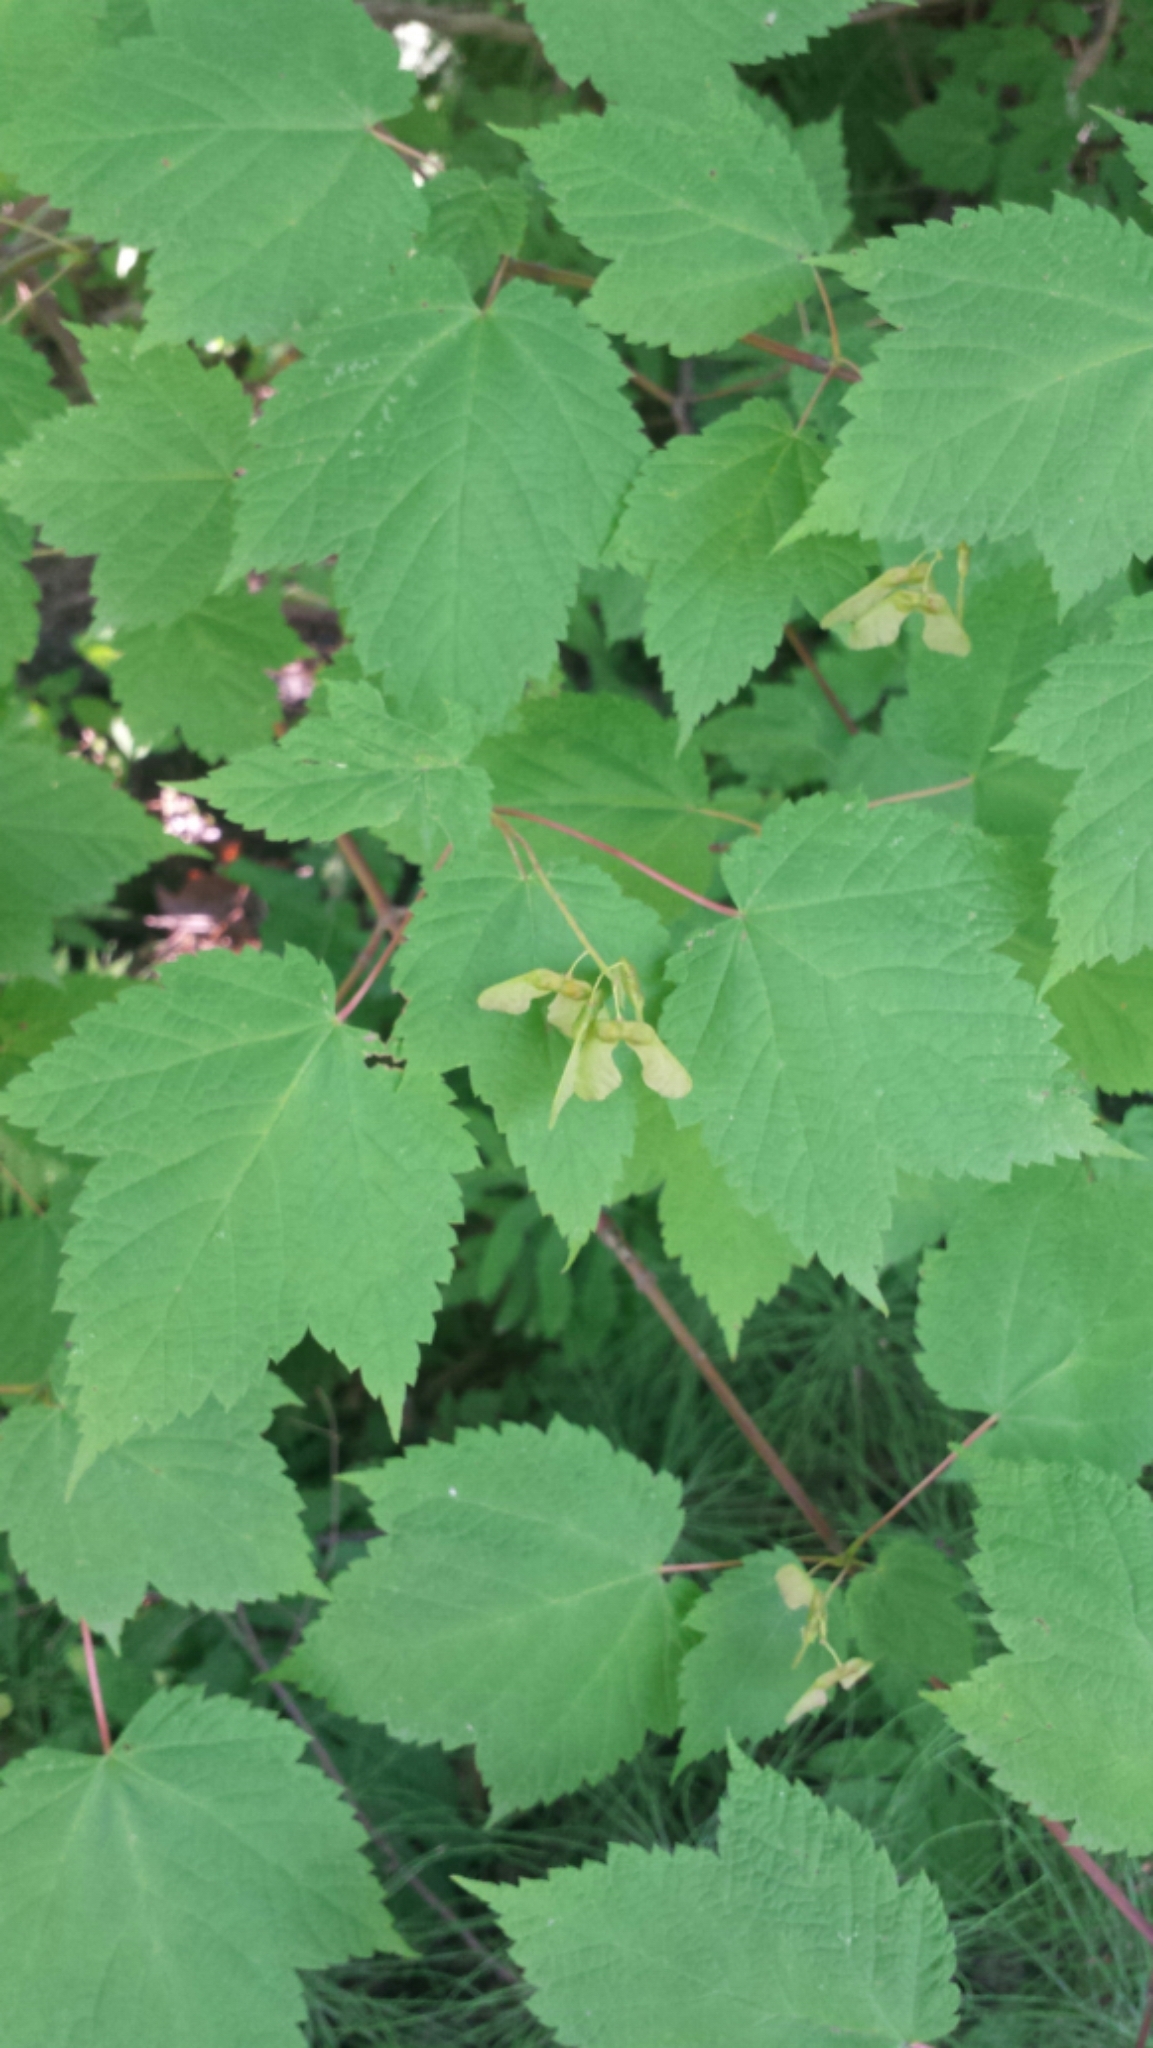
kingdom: Plantae
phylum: Tracheophyta
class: Magnoliopsida
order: Sapindales
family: Sapindaceae
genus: Acer
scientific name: Acer spicatum
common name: Mountain maple
